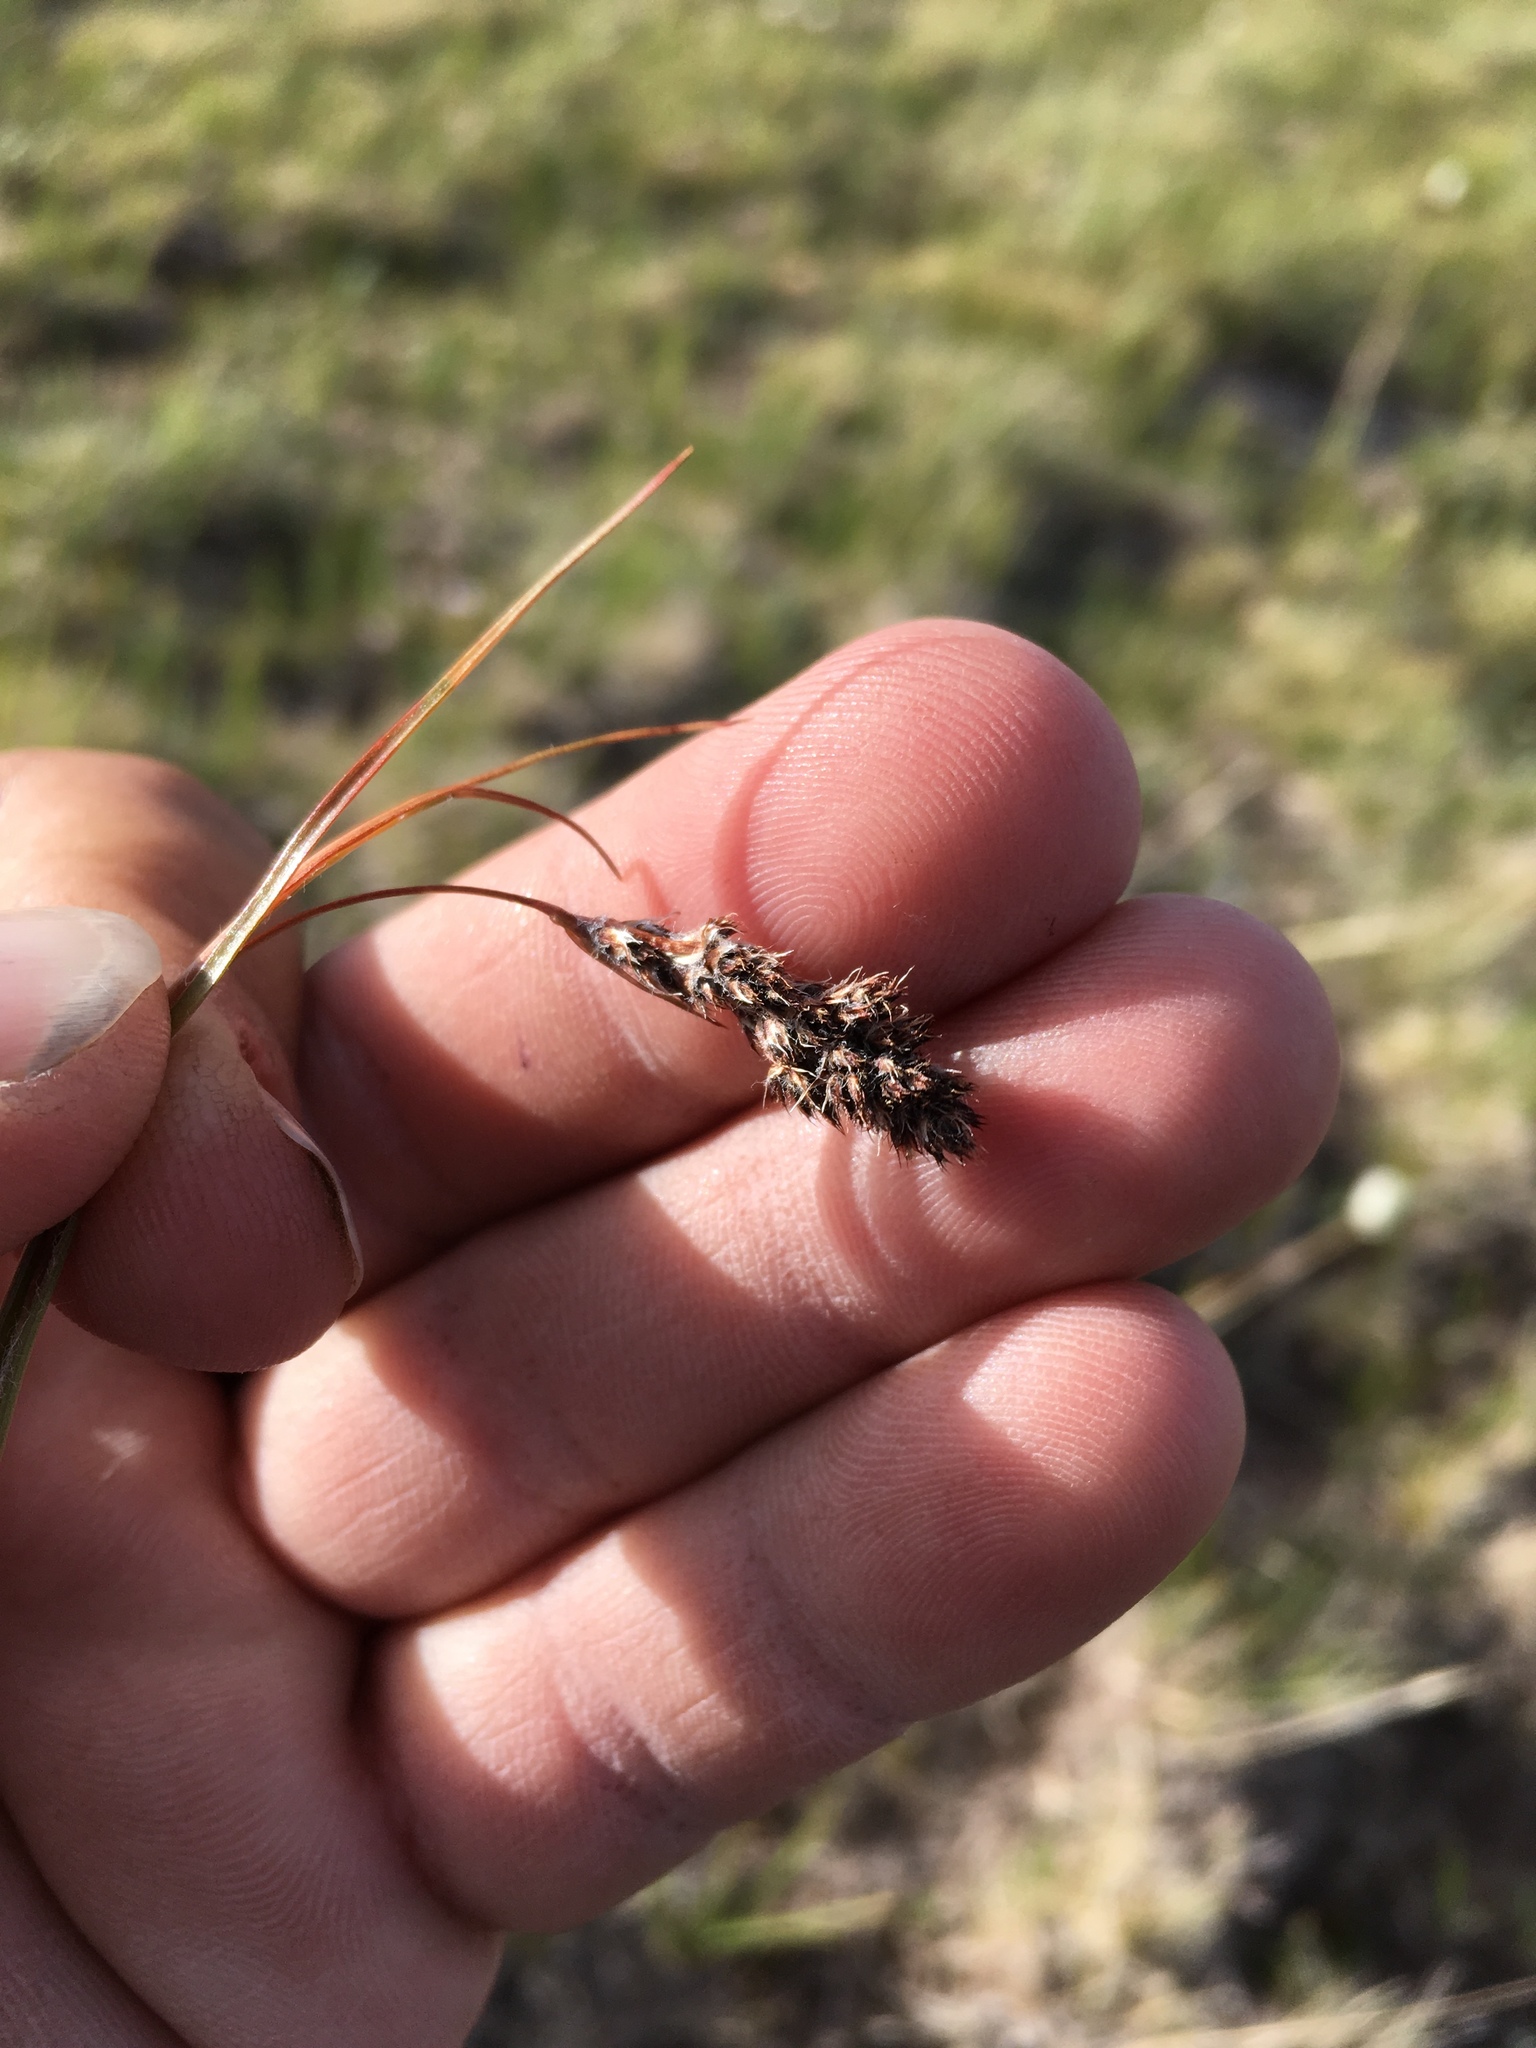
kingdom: Plantae
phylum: Tracheophyta
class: Liliopsida
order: Poales
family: Juncaceae
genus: Luzula
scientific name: Luzula spicata
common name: Spiked wood-rush
